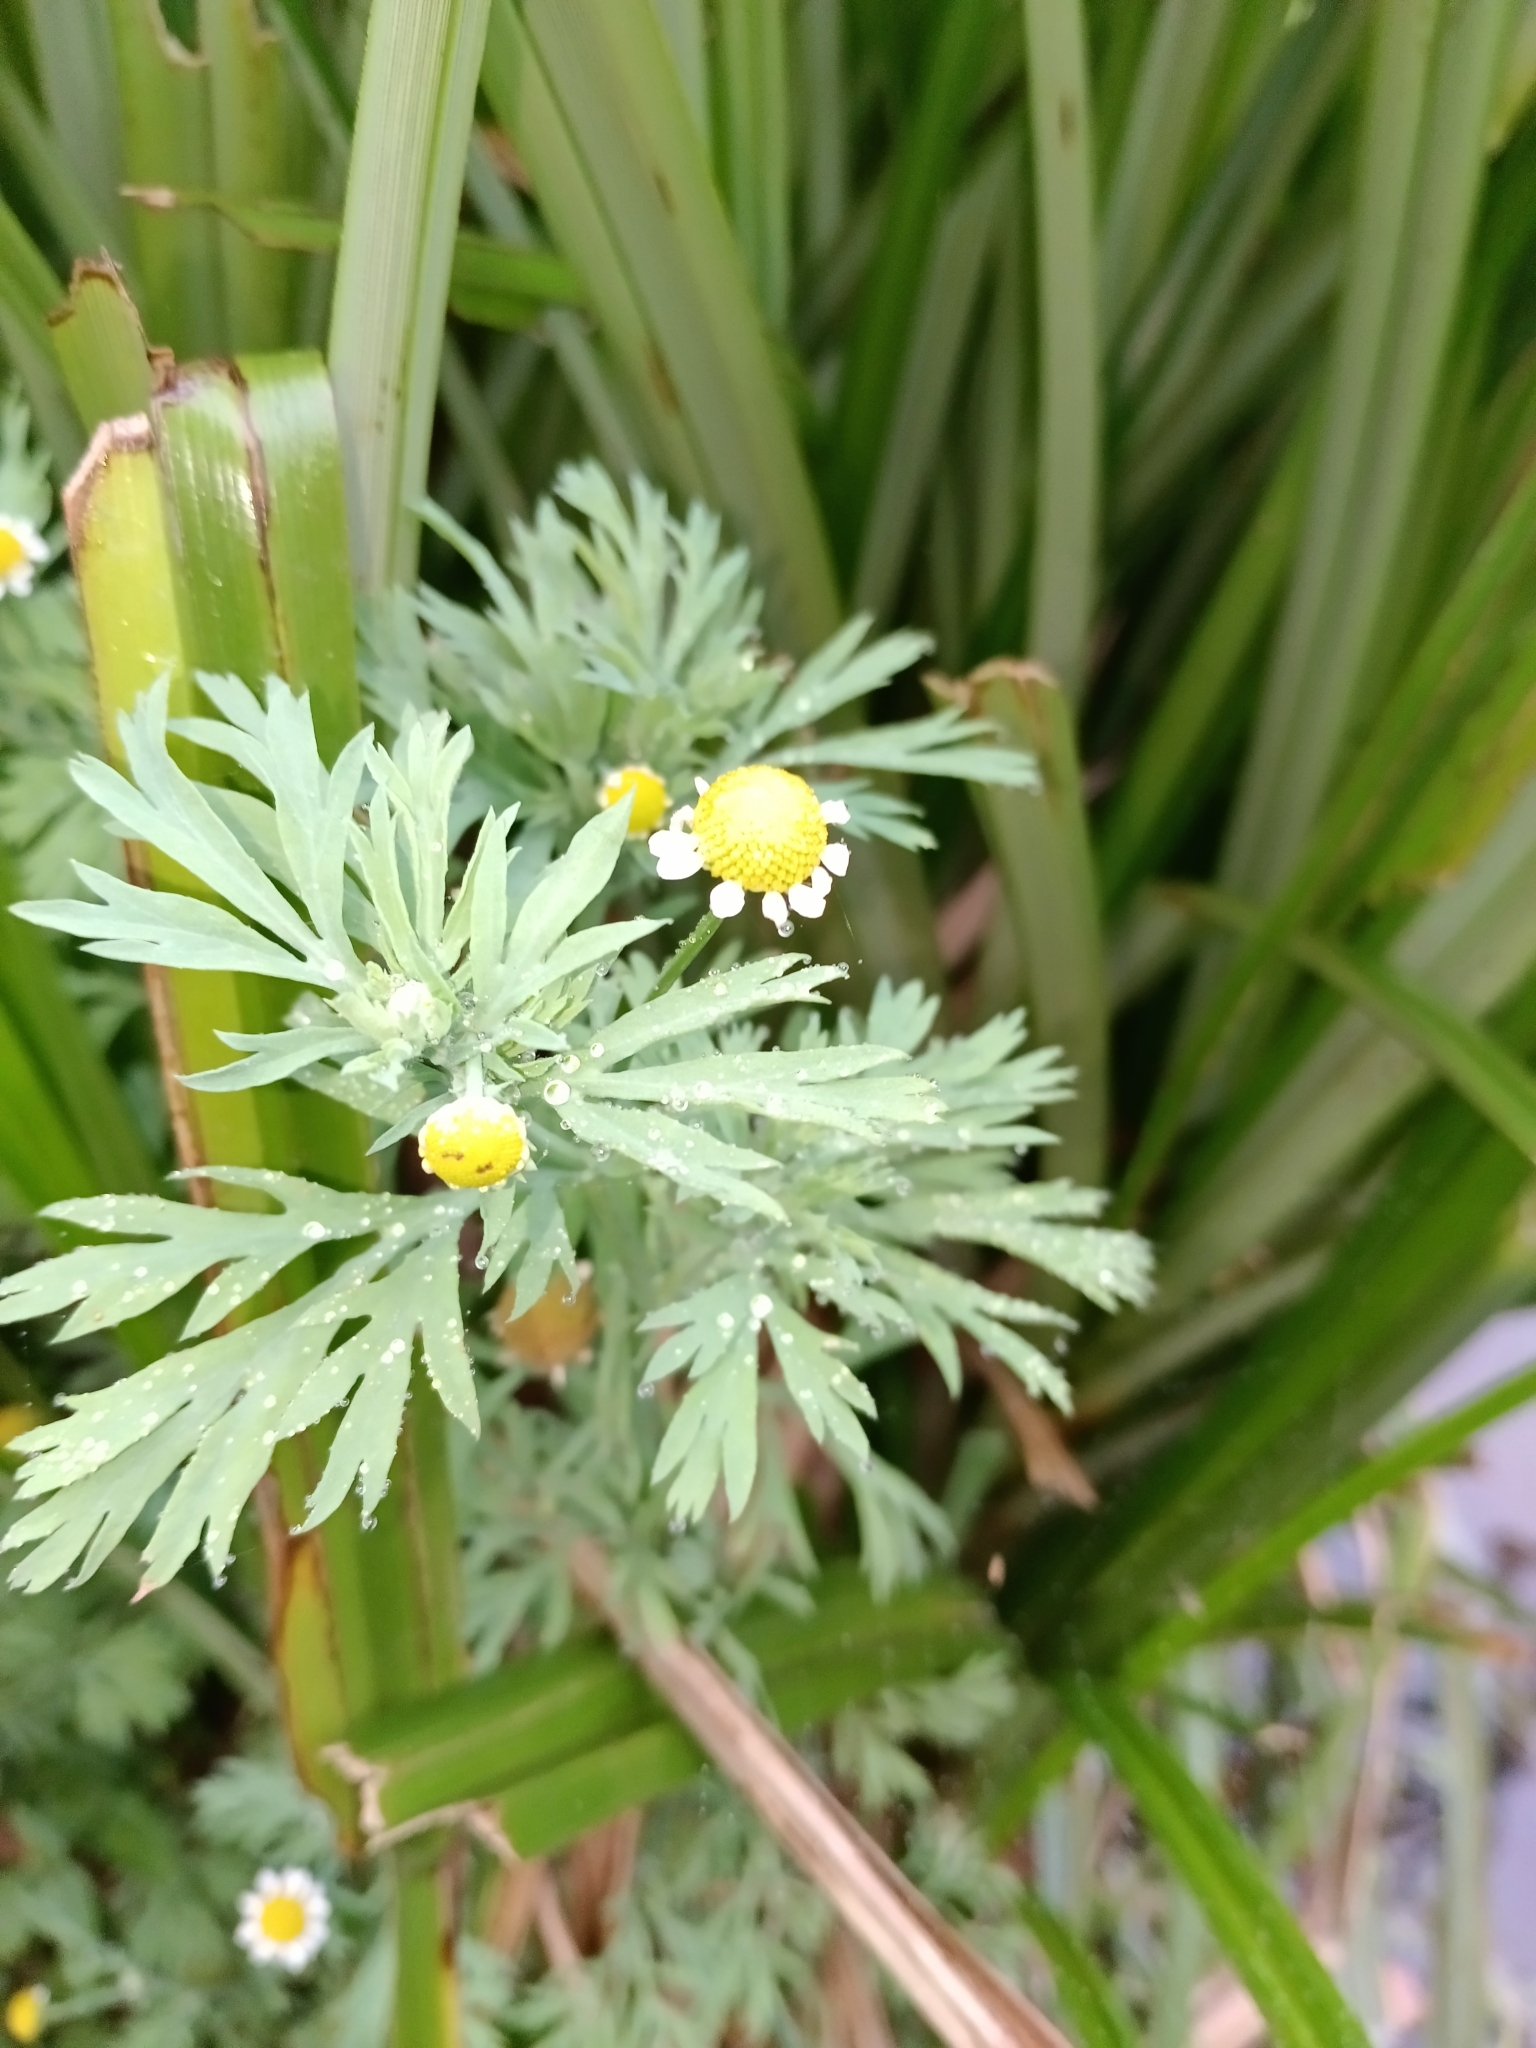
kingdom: Plantae
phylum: Tracheophyta
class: Magnoliopsida
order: Asterales
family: Asteraceae
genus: Cotula
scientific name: Cotula nigellifolia
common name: Staggerweed
